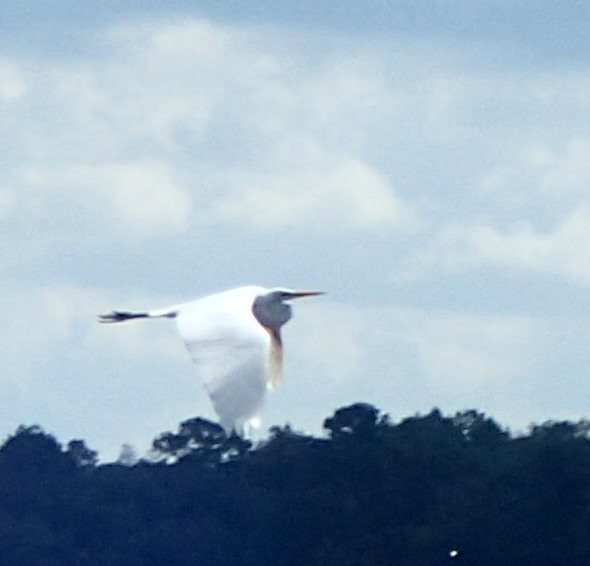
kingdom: Animalia
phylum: Chordata
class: Aves
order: Pelecaniformes
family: Ardeidae
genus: Ardea
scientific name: Ardea alba
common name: Great egret
